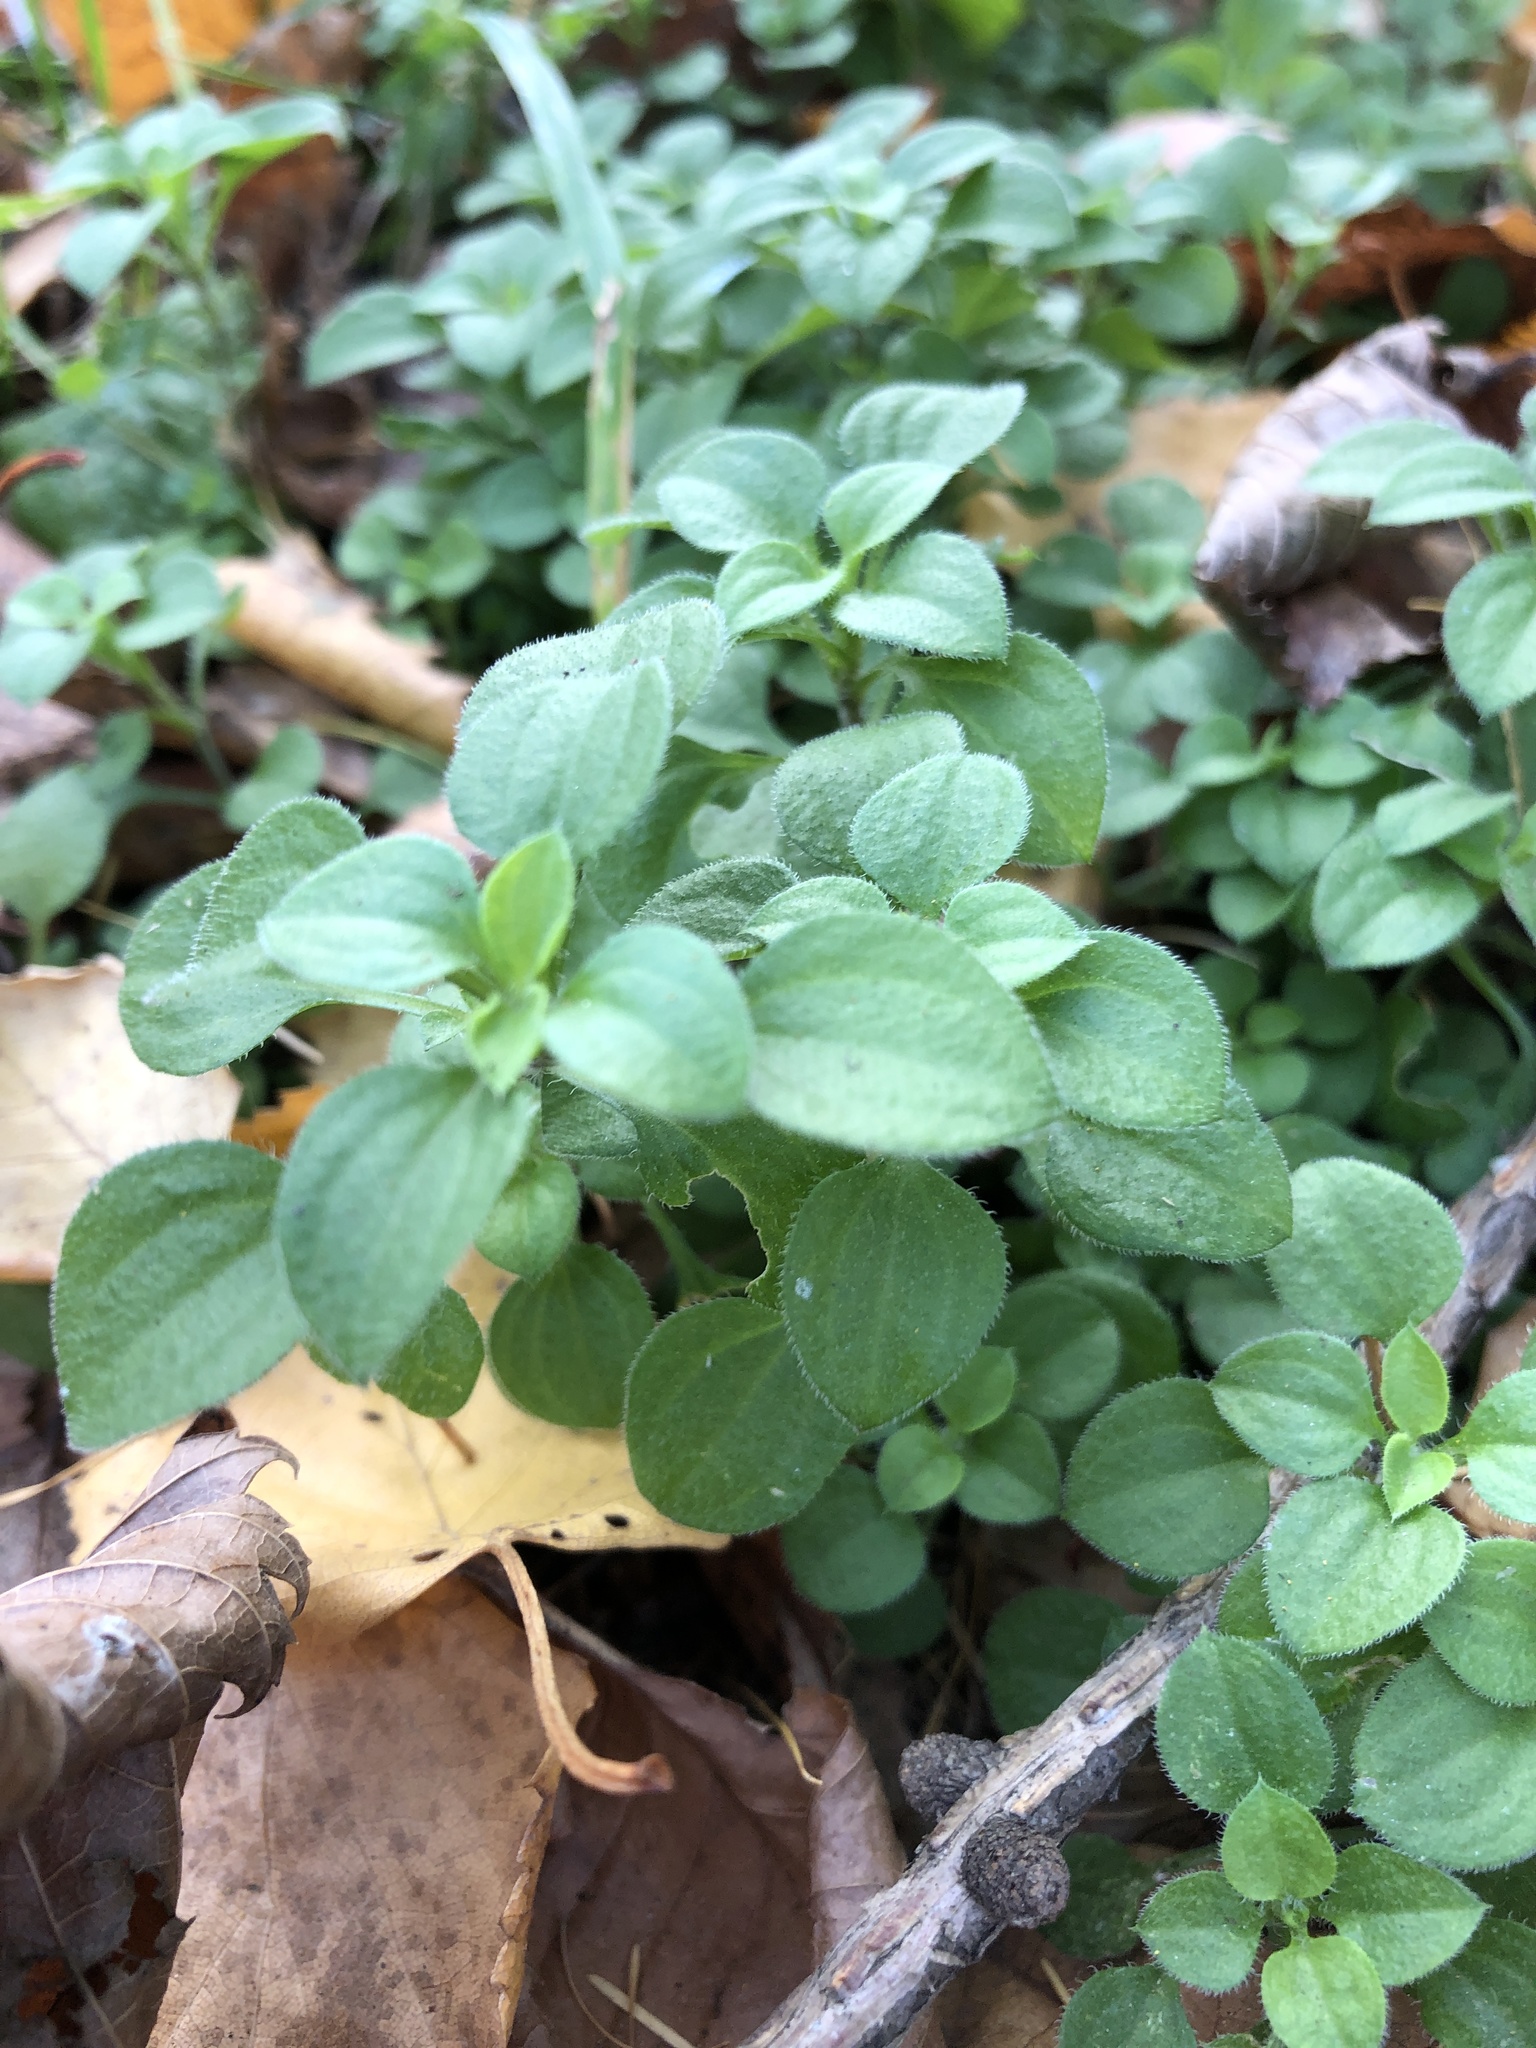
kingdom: Plantae
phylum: Tracheophyta
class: Magnoliopsida
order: Caryophyllales
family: Caryophyllaceae
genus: Moehringia
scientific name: Moehringia trinervia
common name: Three-nerved sandwort
